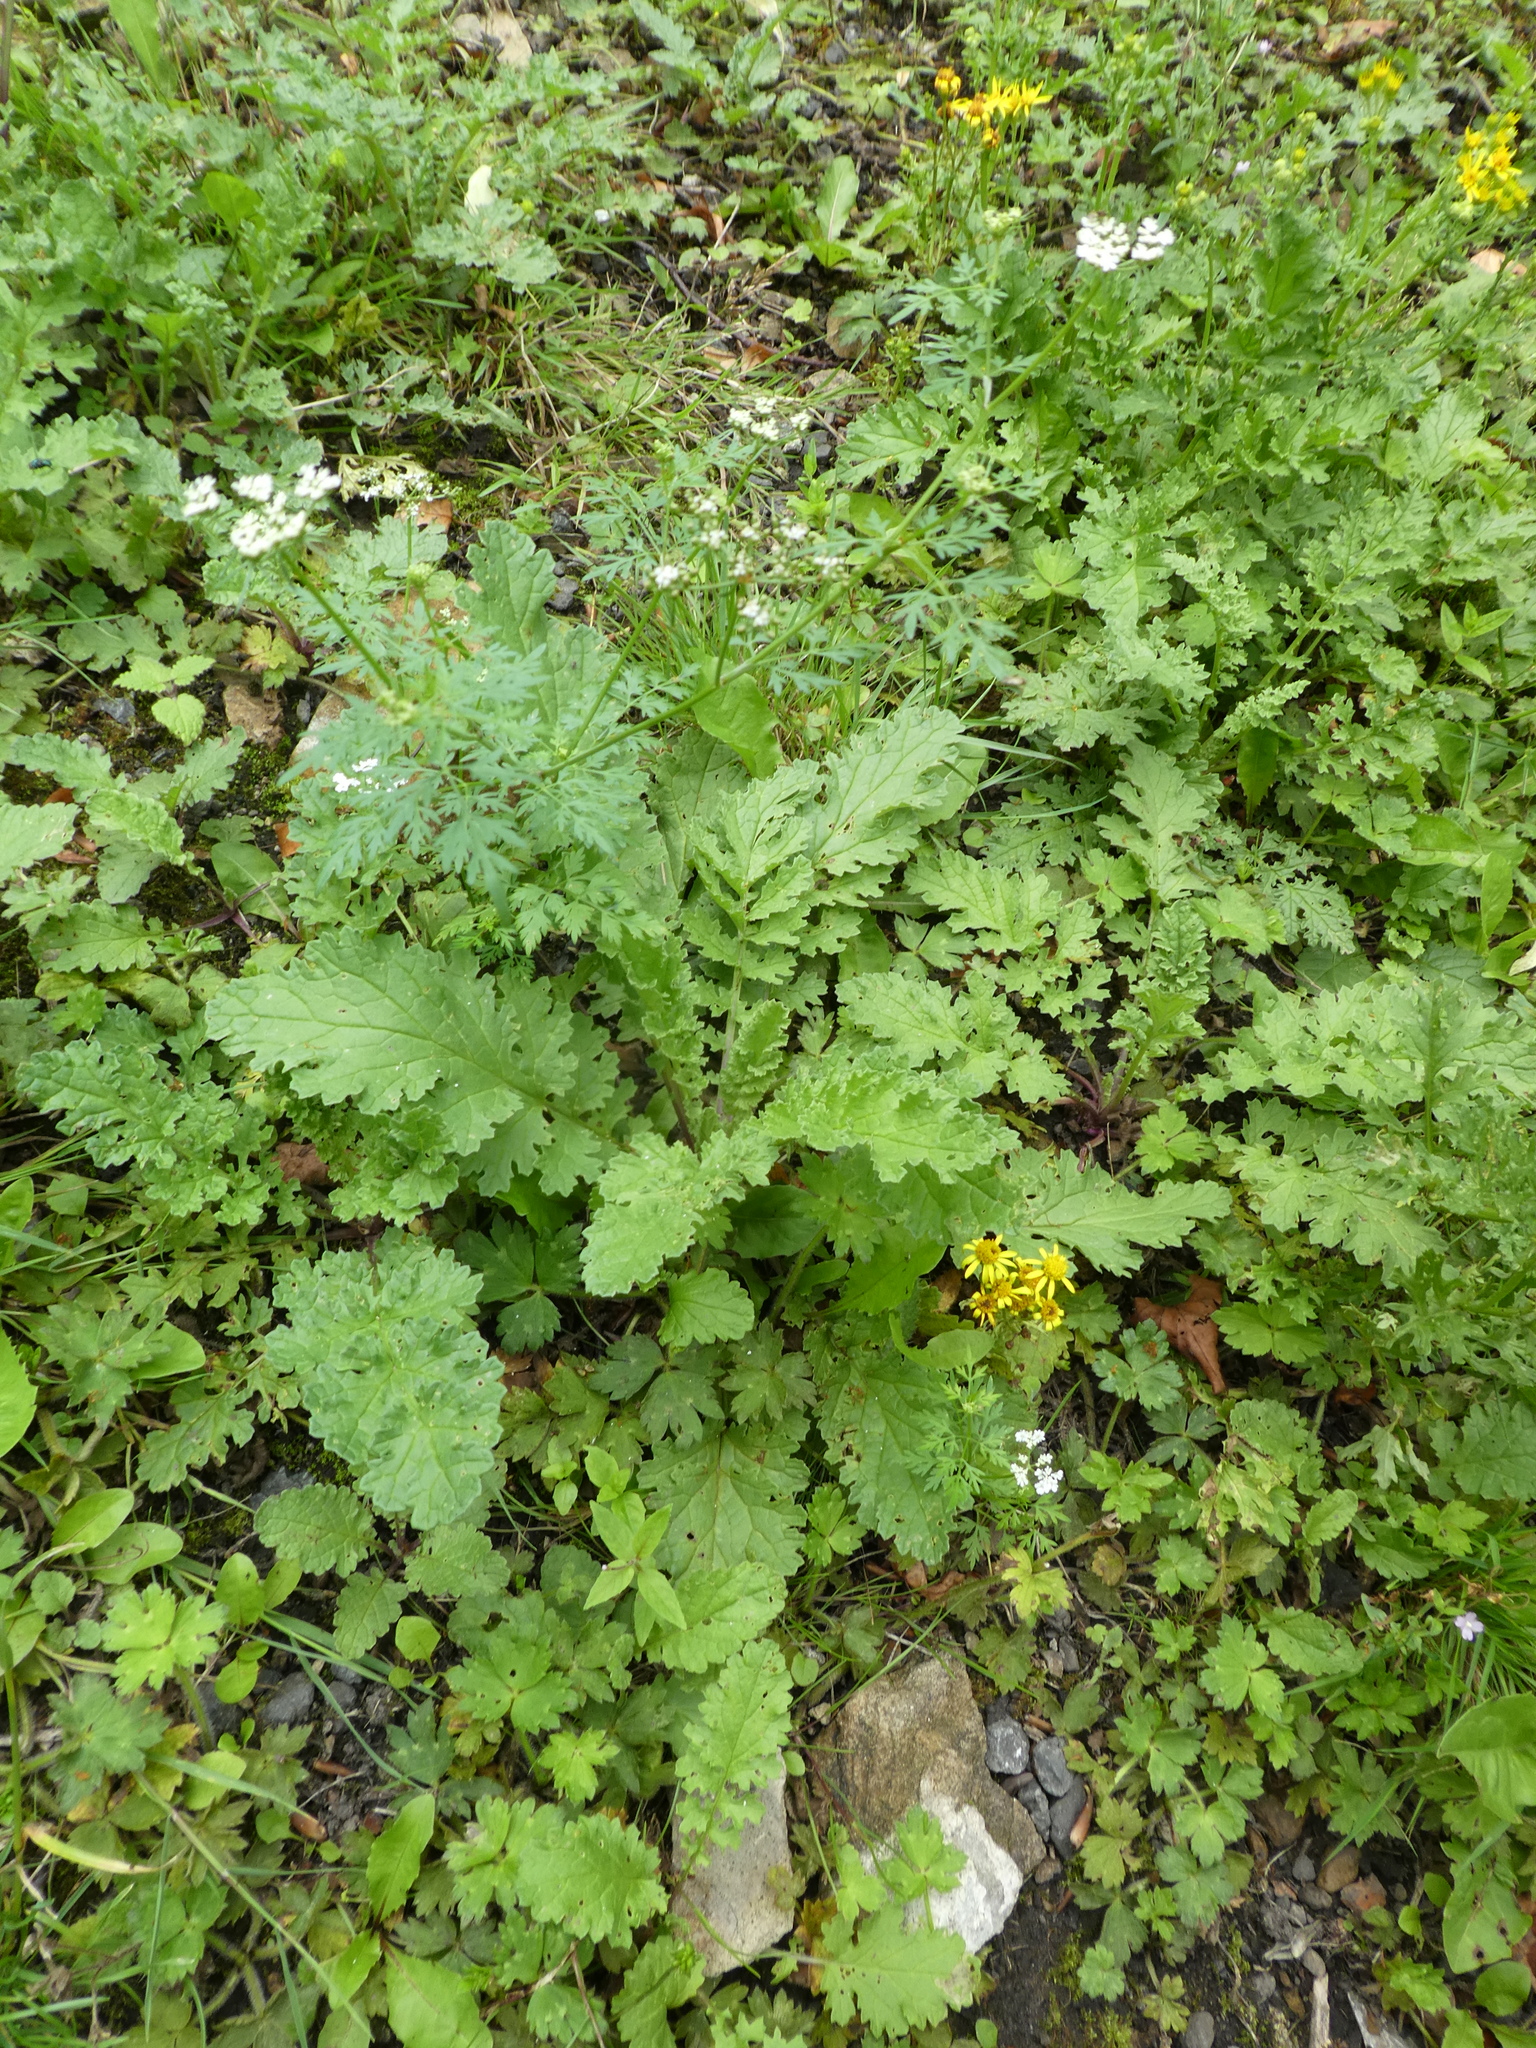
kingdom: Plantae
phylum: Tracheophyta
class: Magnoliopsida
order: Apiales
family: Apiaceae
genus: Aethusa
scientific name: Aethusa cynapium
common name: Fool's parsley
